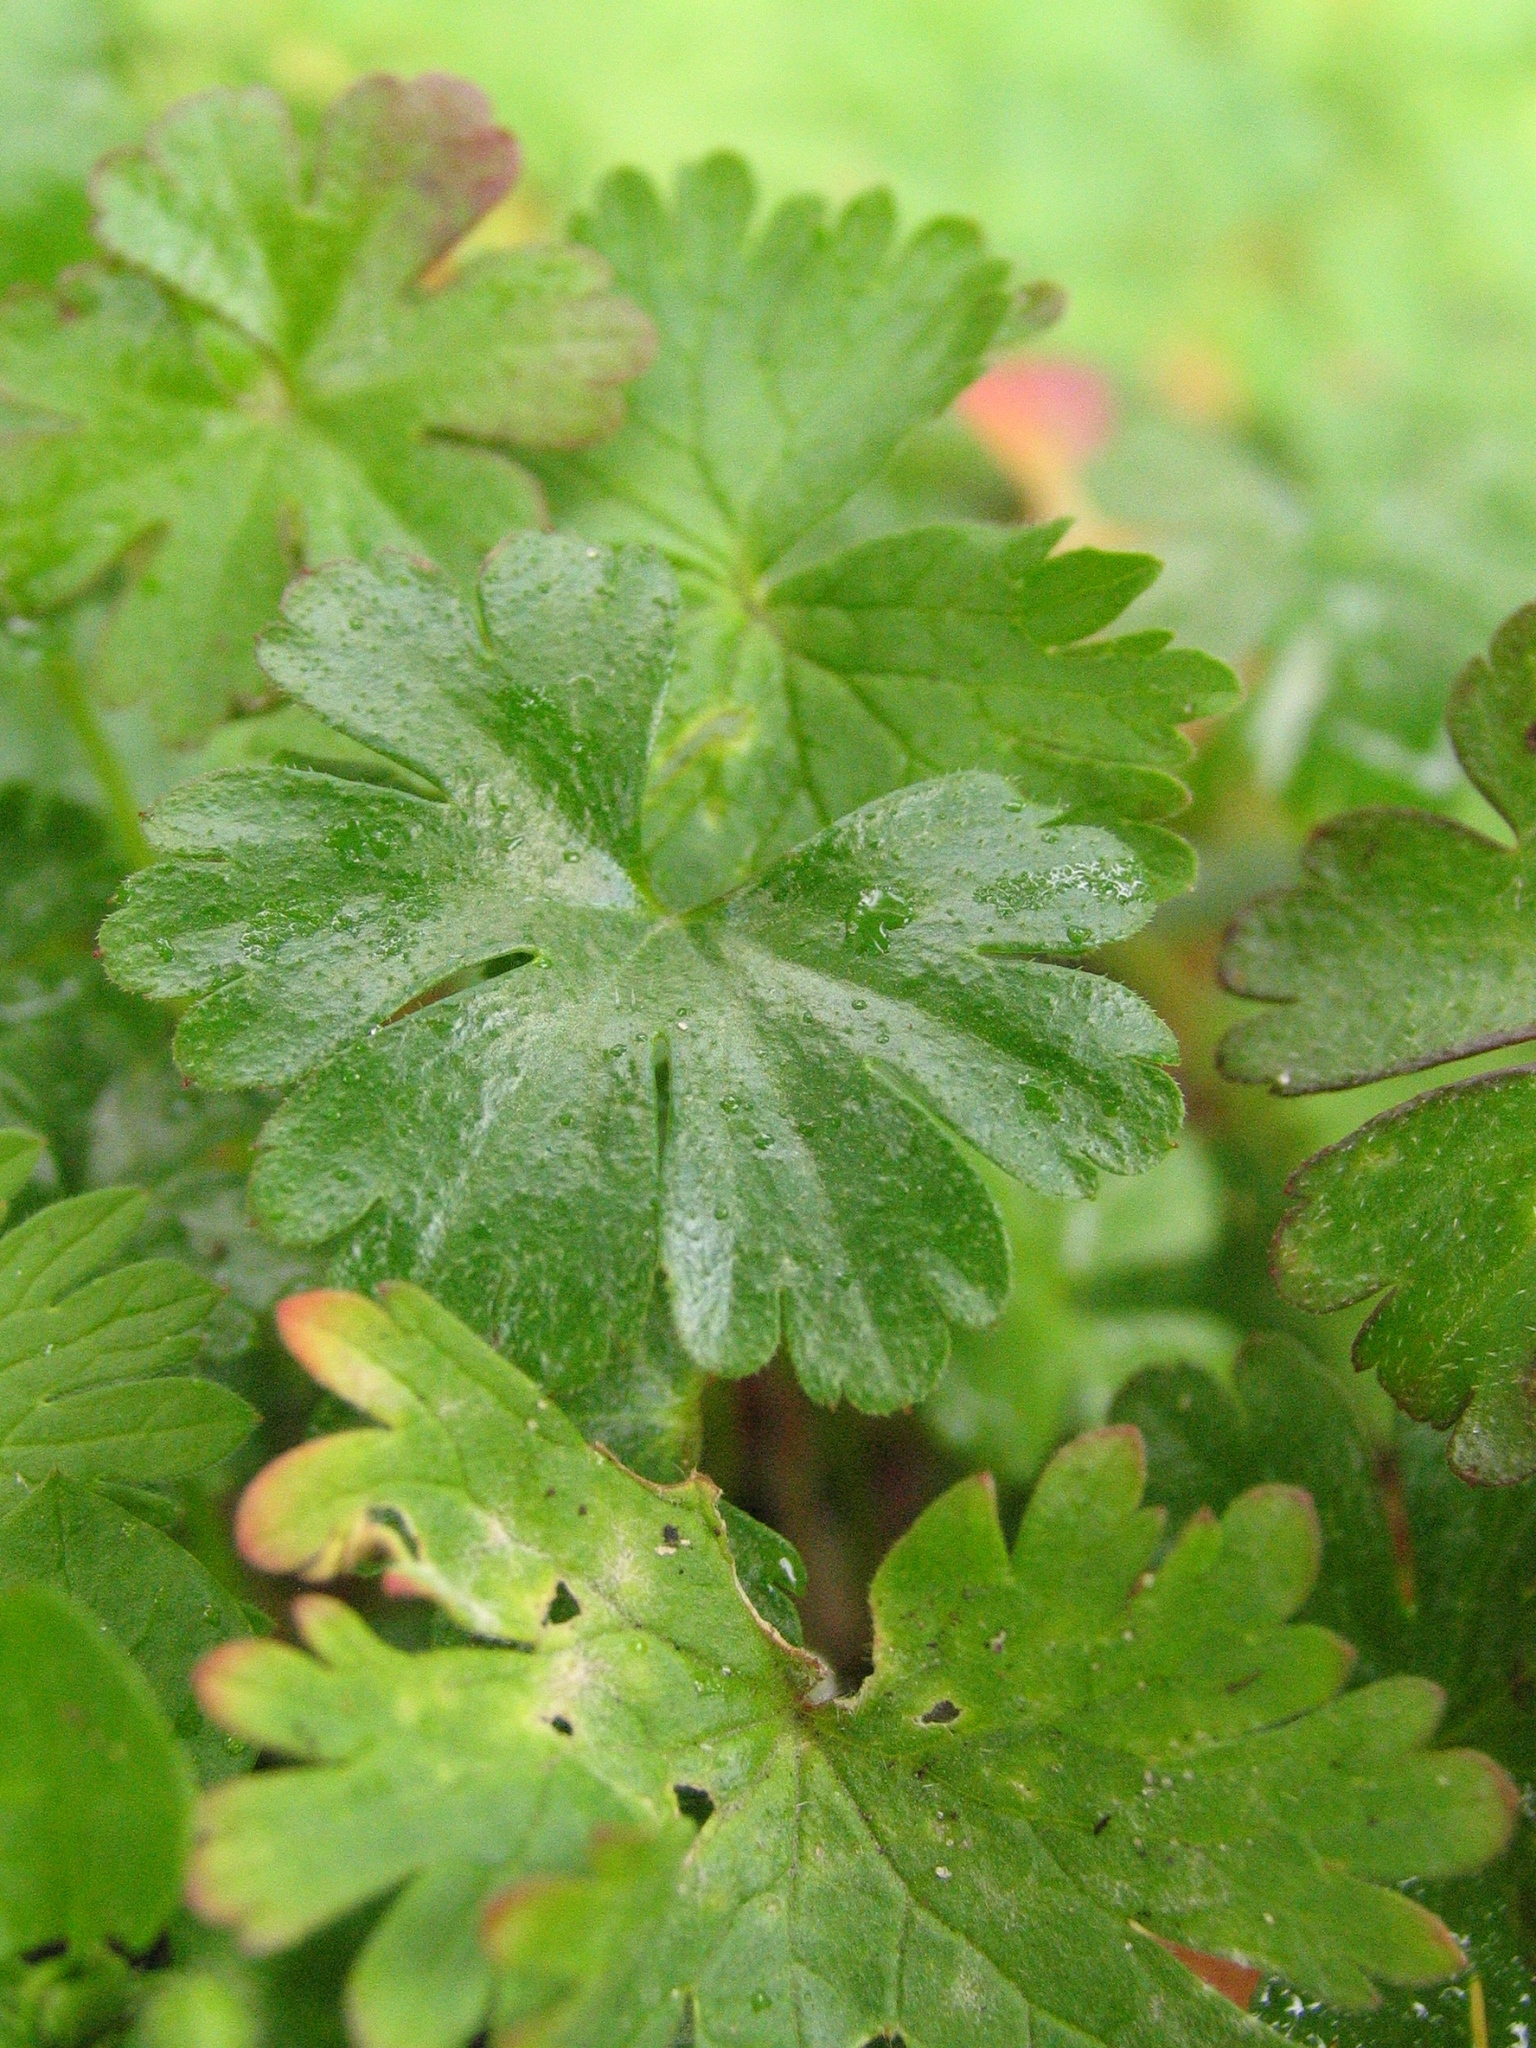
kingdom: Plantae
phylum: Tracheophyta
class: Magnoliopsida
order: Geraniales
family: Geraniaceae
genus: Geranium
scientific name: Geranium lucidum
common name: Shining crane's-bill
